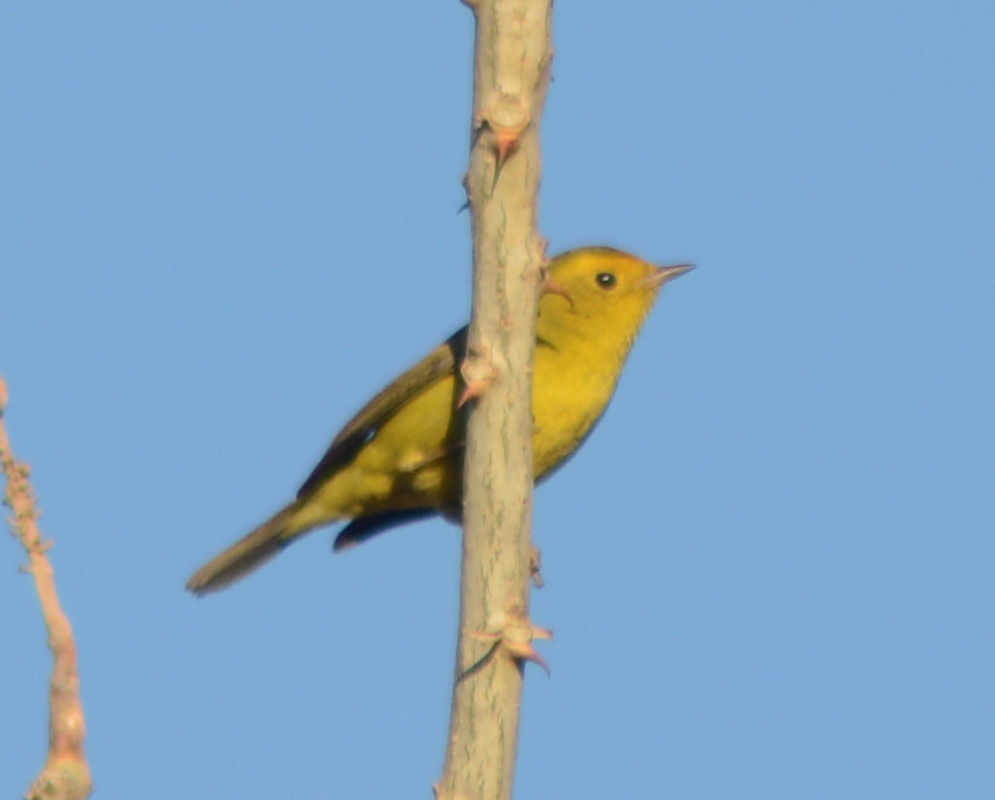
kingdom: Animalia
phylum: Chordata
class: Aves
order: Passeriformes
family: Parulidae
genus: Cardellina
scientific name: Cardellina pusilla
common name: Wilson's warbler
